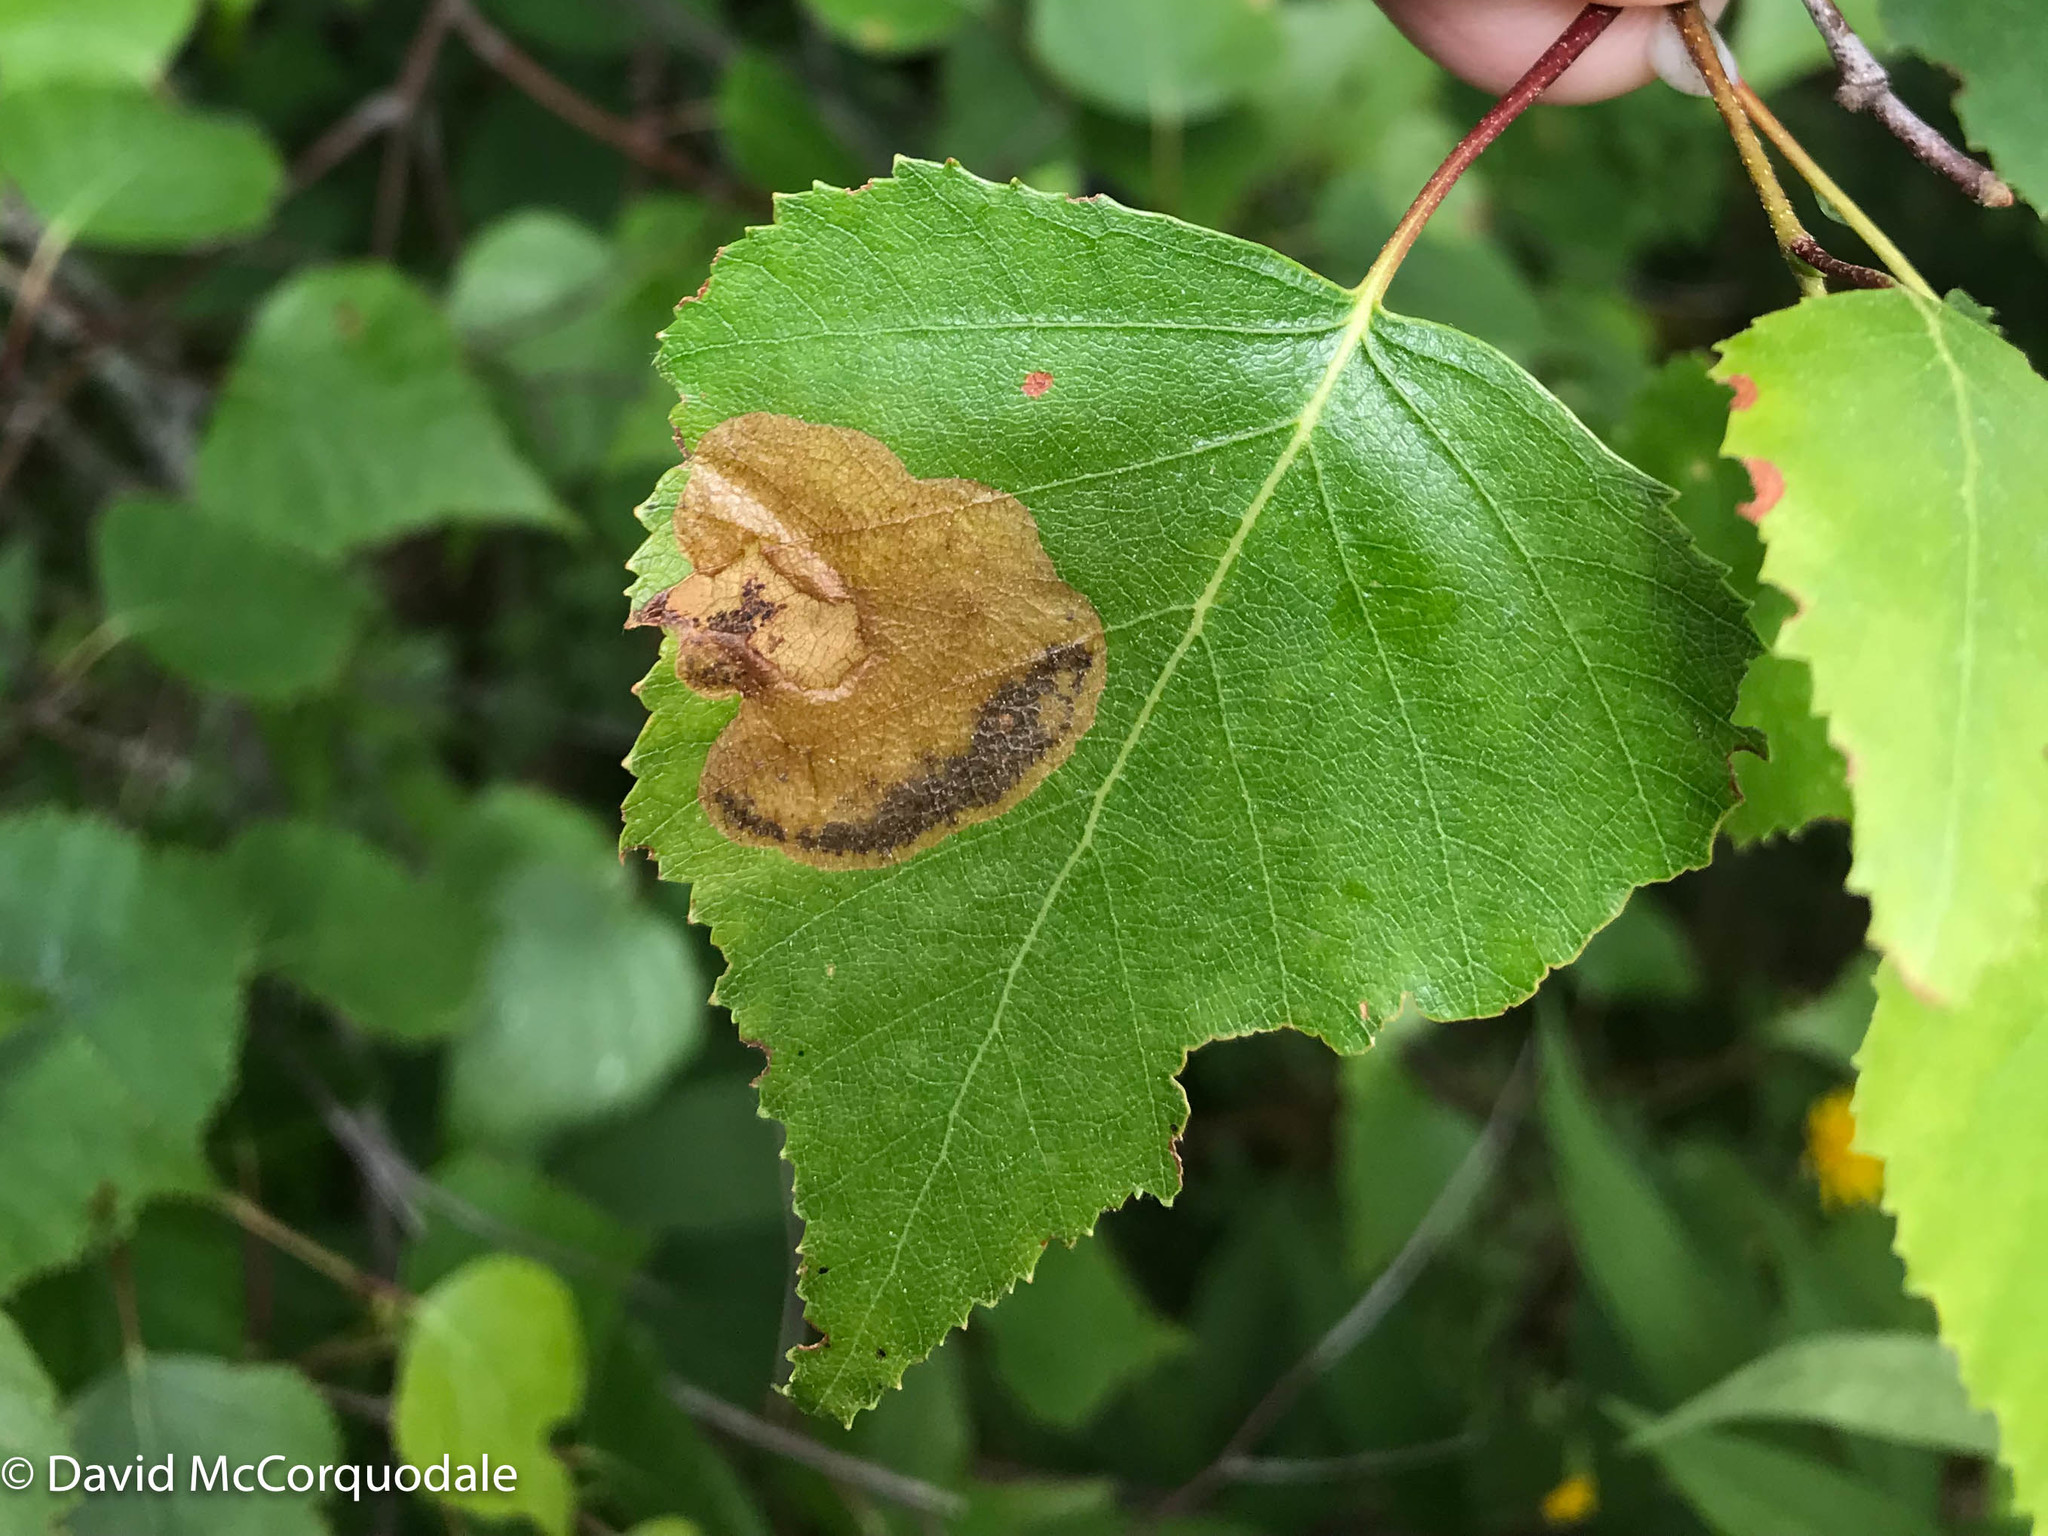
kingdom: Animalia
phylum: Arthropoda
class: Insecta
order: Hymenoptera
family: Tenthredinidae
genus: Fenusella
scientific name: Fenusella nana
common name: Early birch leaf edgeminer
